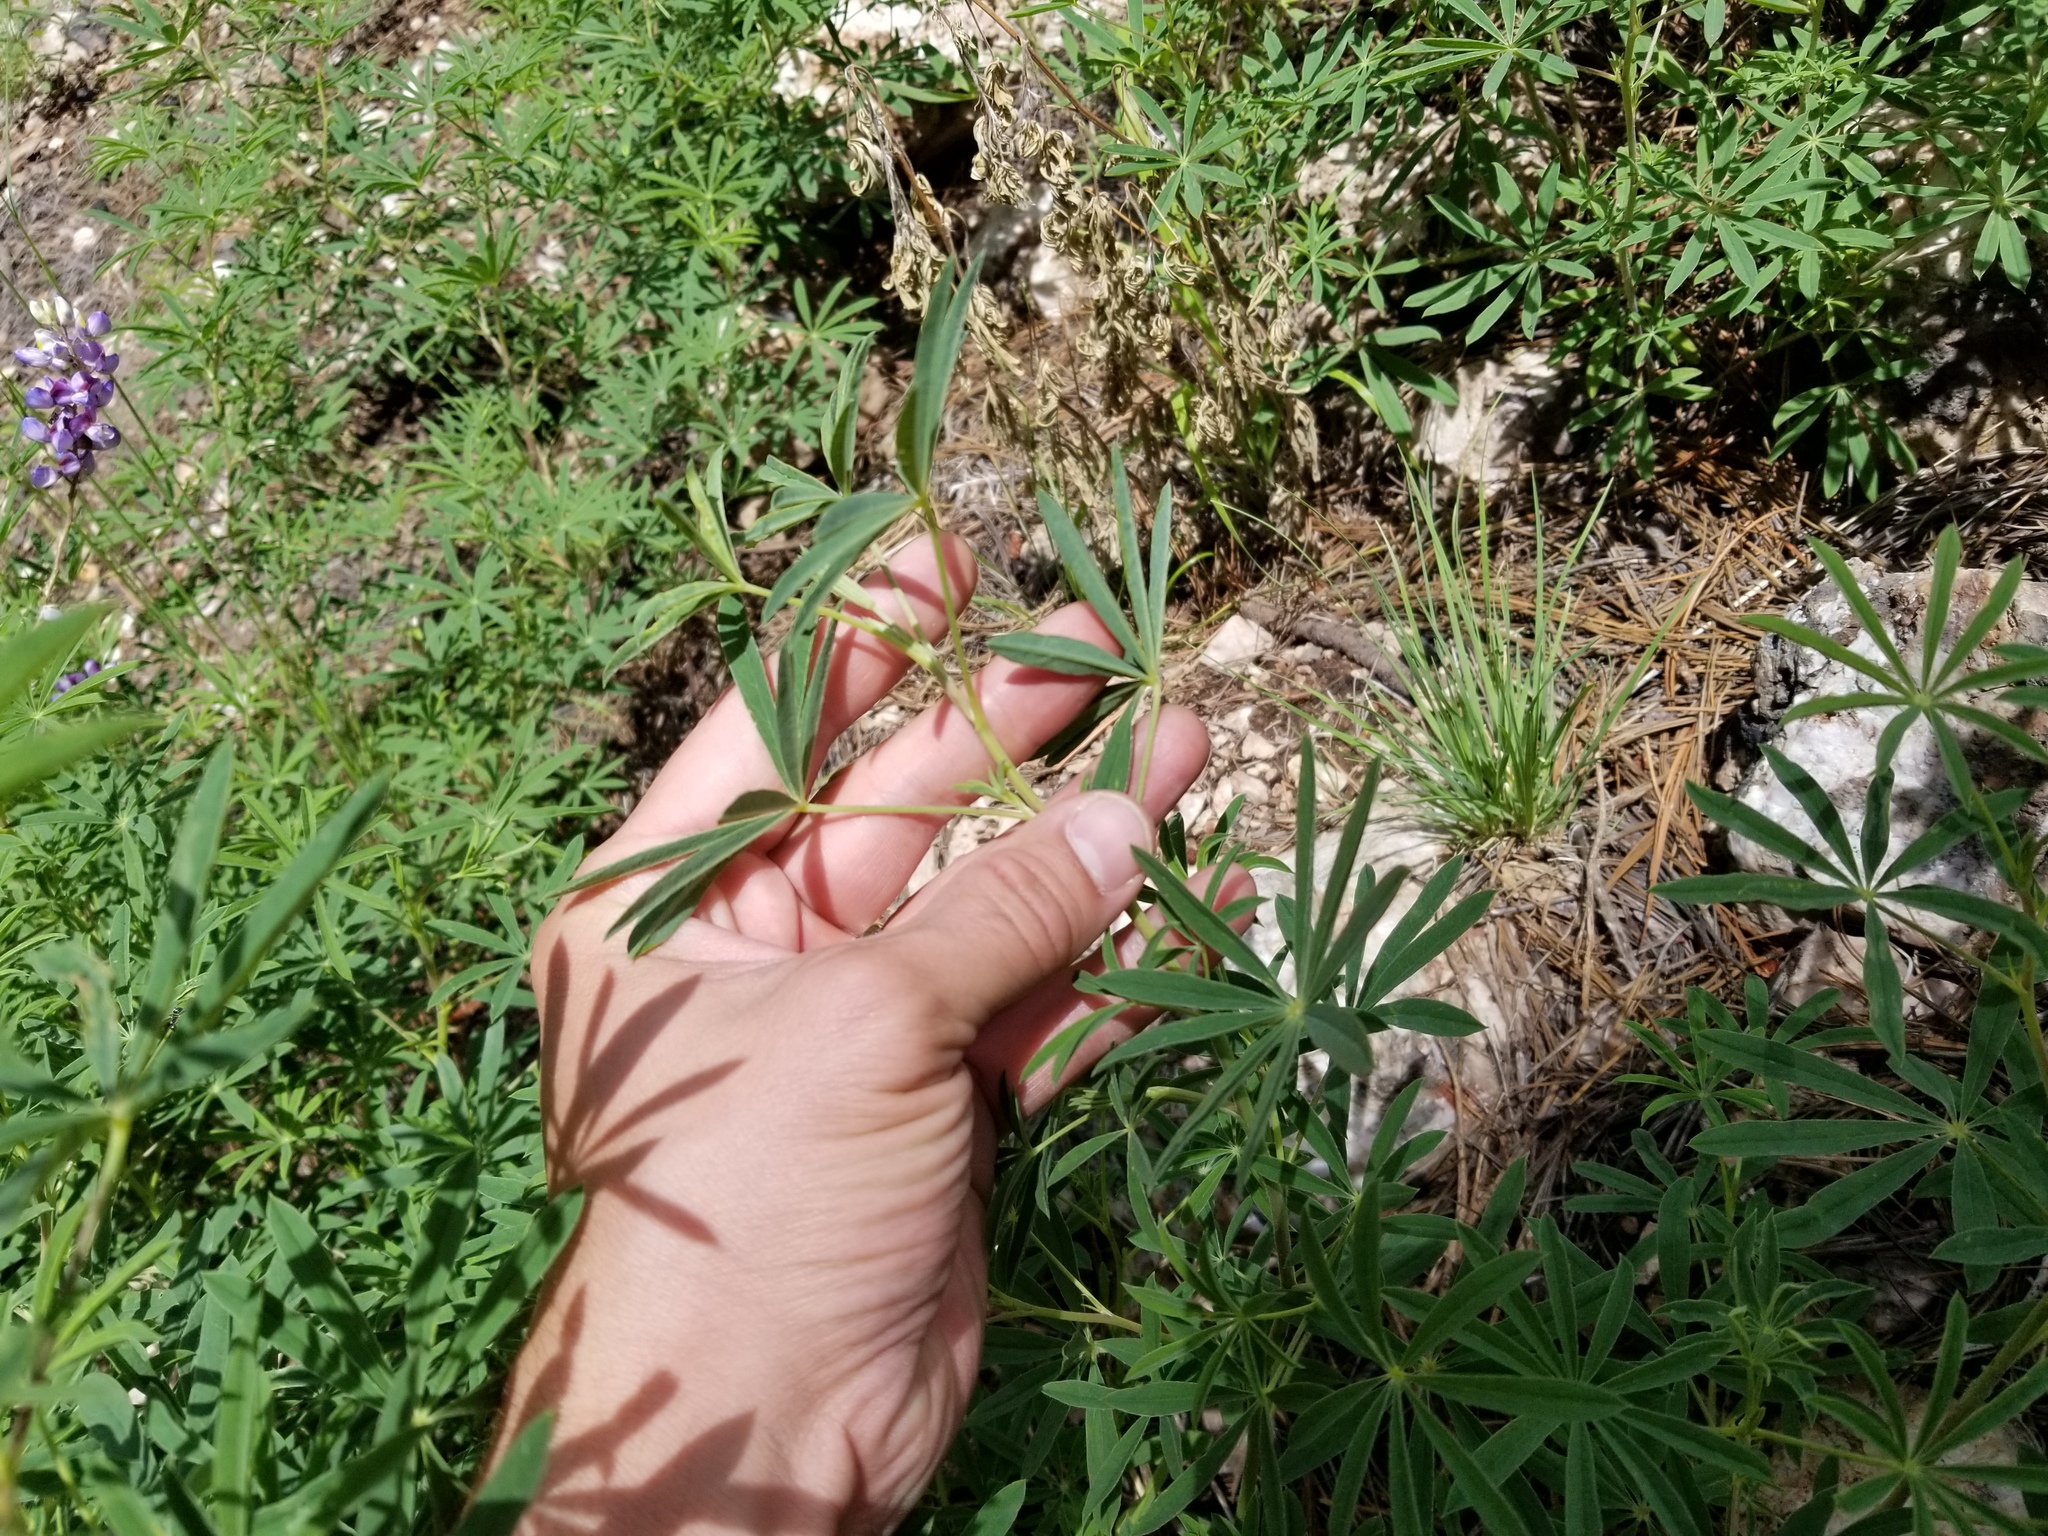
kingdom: Plantae
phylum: Tracheophyta
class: Magnoliopsida
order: Fabales
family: Fabaceae
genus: Lupinus
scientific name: Lupinus neomexicanus
